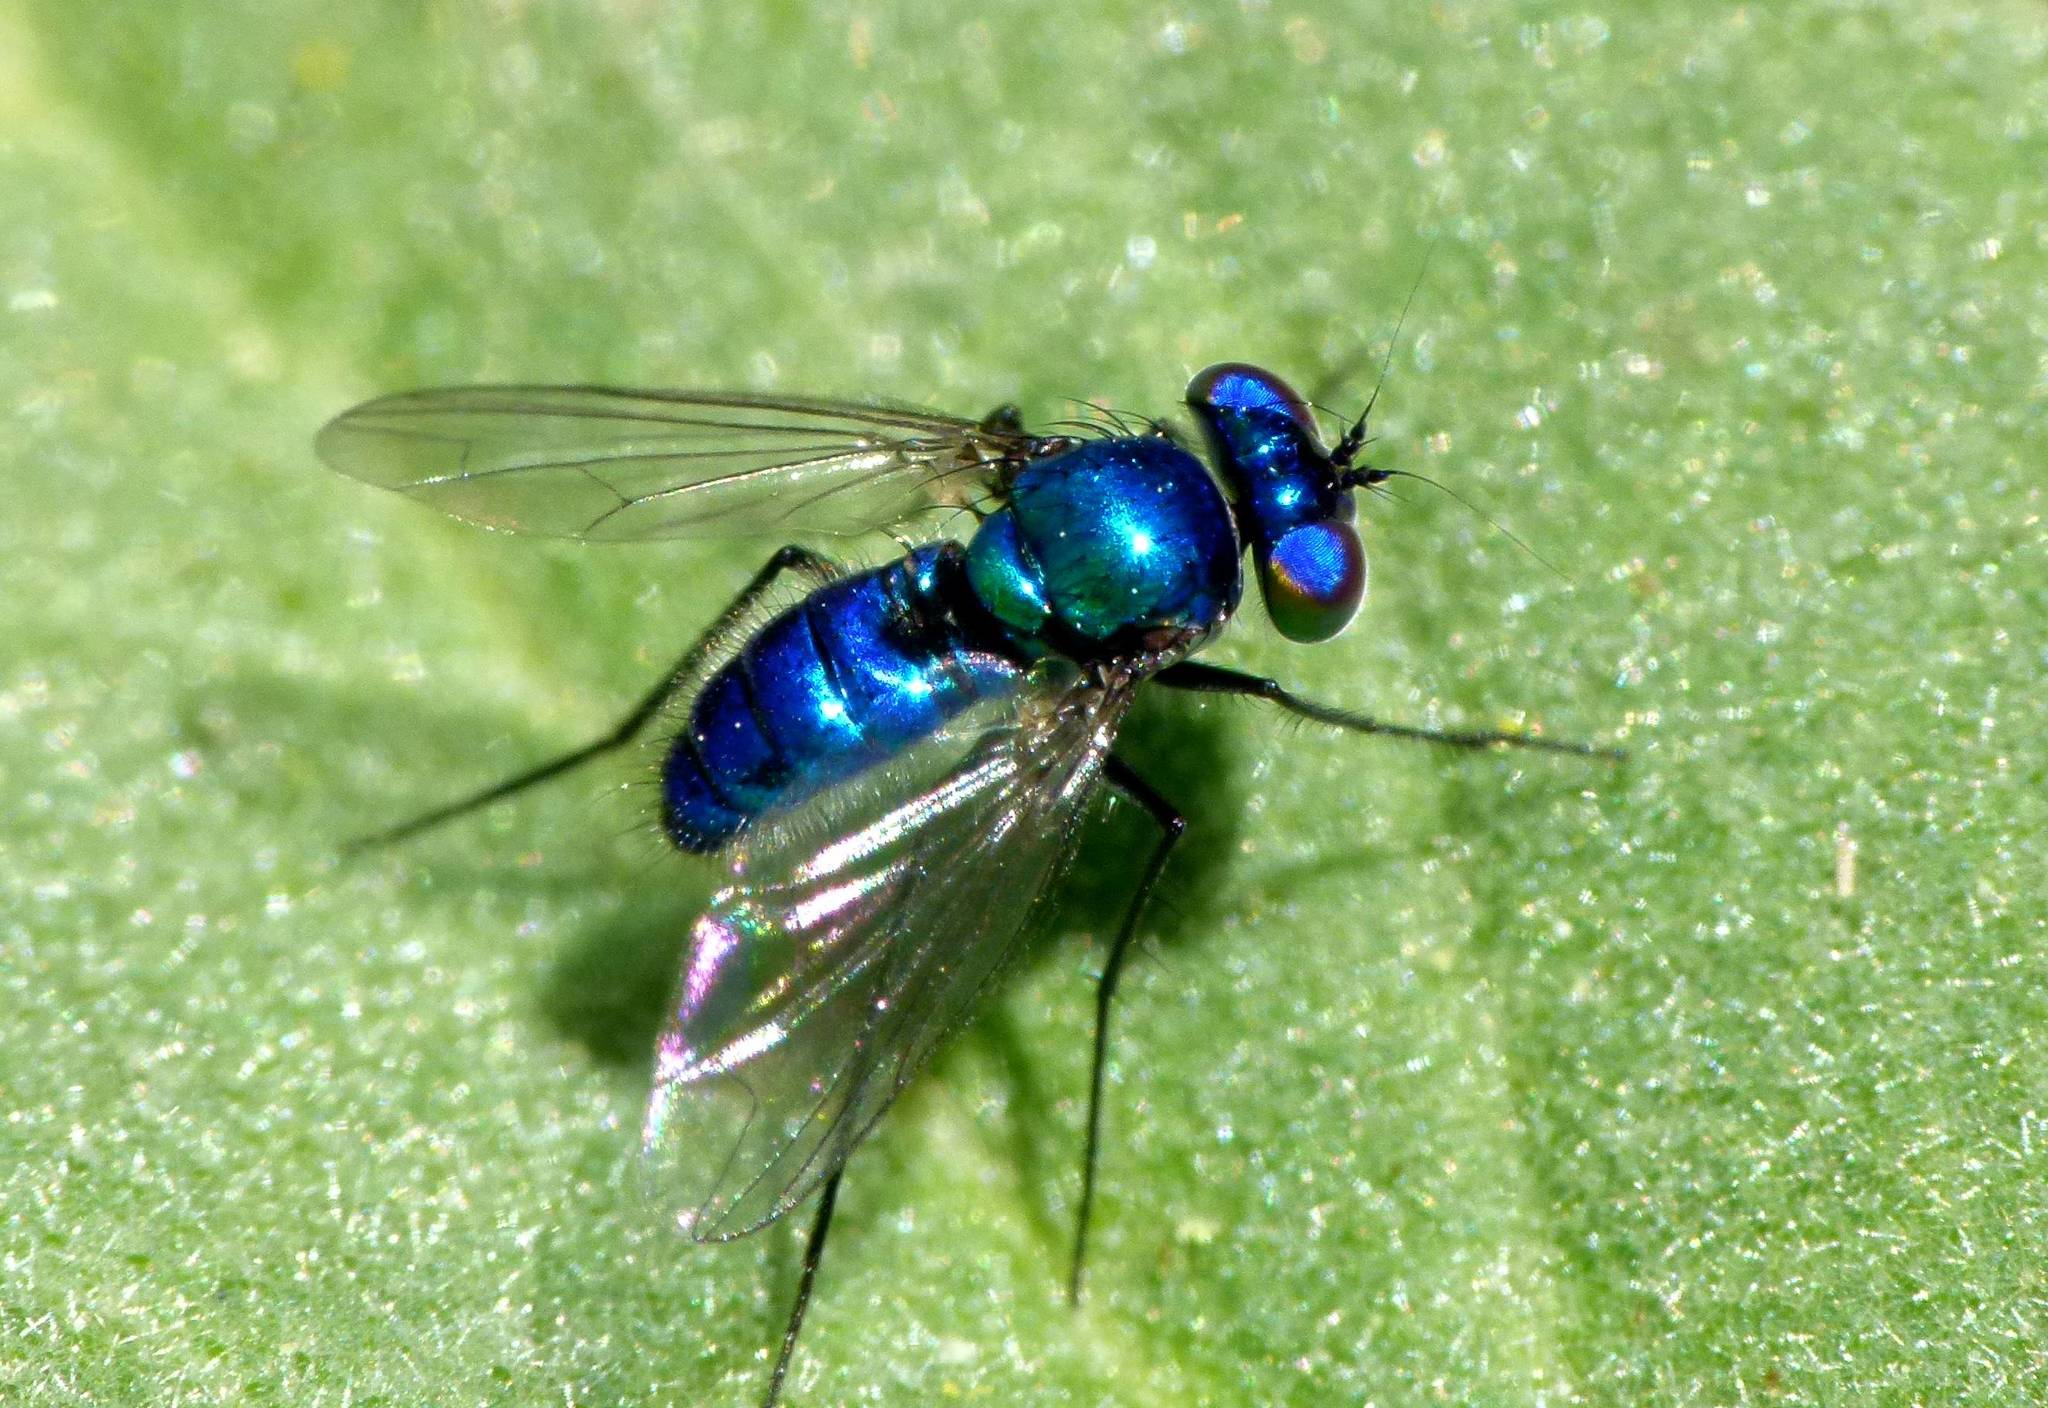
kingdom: Animalia
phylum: Arthropoda
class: Insecta
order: Diptera
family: Dolichopodidae
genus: Condylostylus
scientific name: Condylostylus mundus
